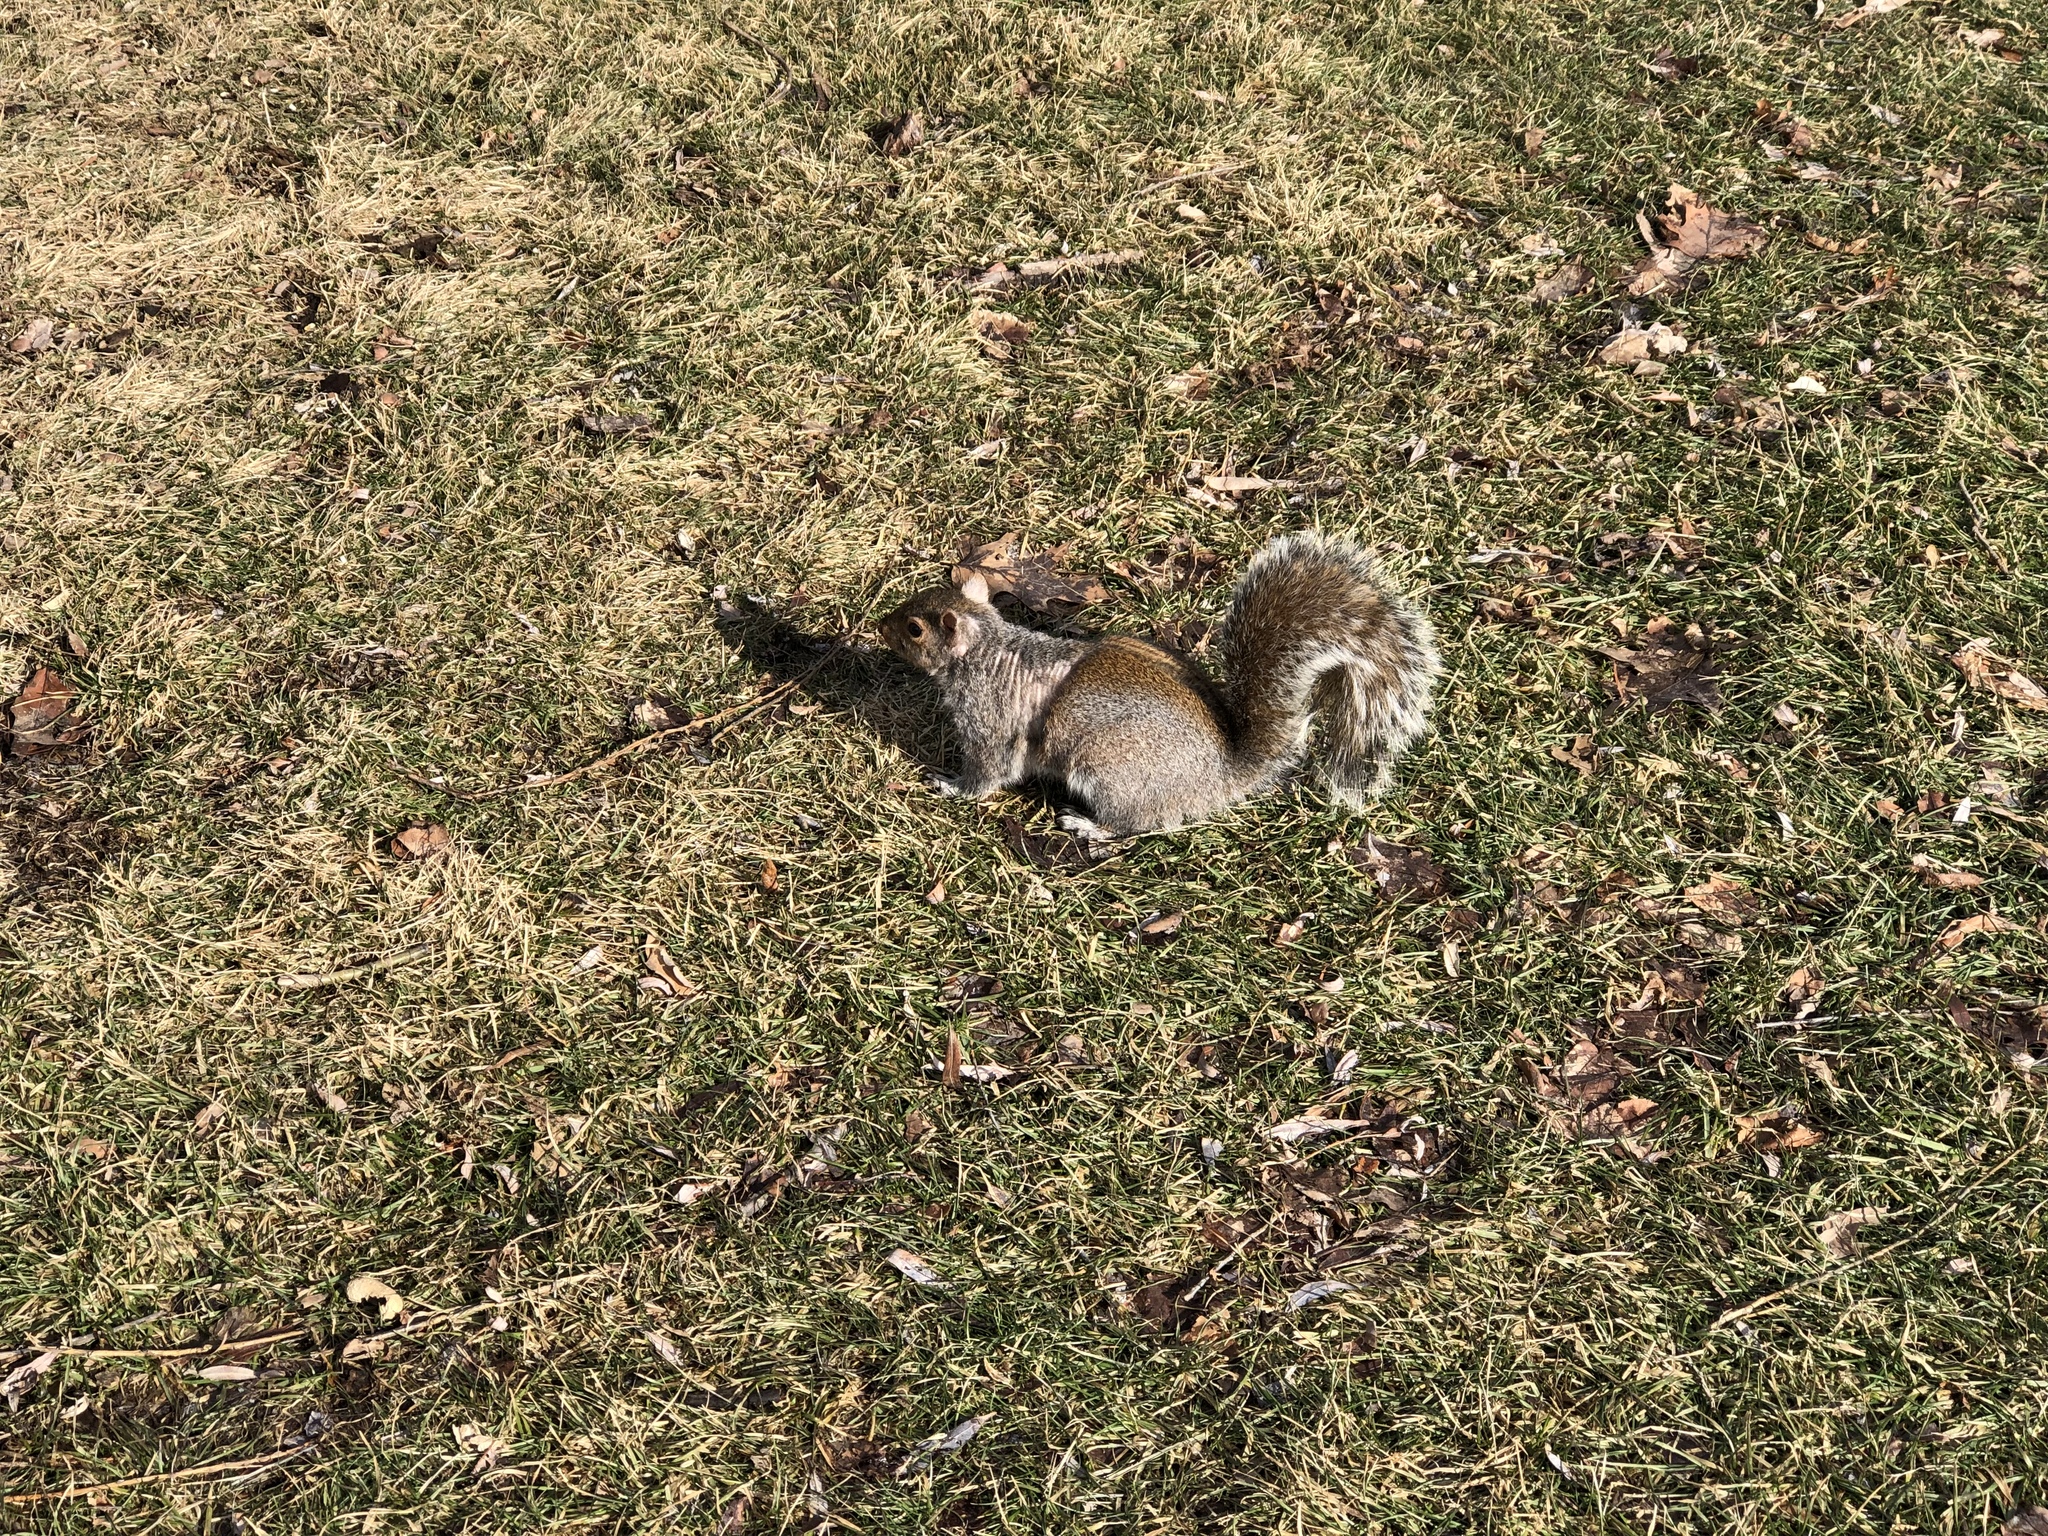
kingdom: Animalia
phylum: Chordata
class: Mammalia
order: Rodentia
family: Sciuridae
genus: Sciurus
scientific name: Sciurus carolinensis
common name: Eastern gray squirrel
